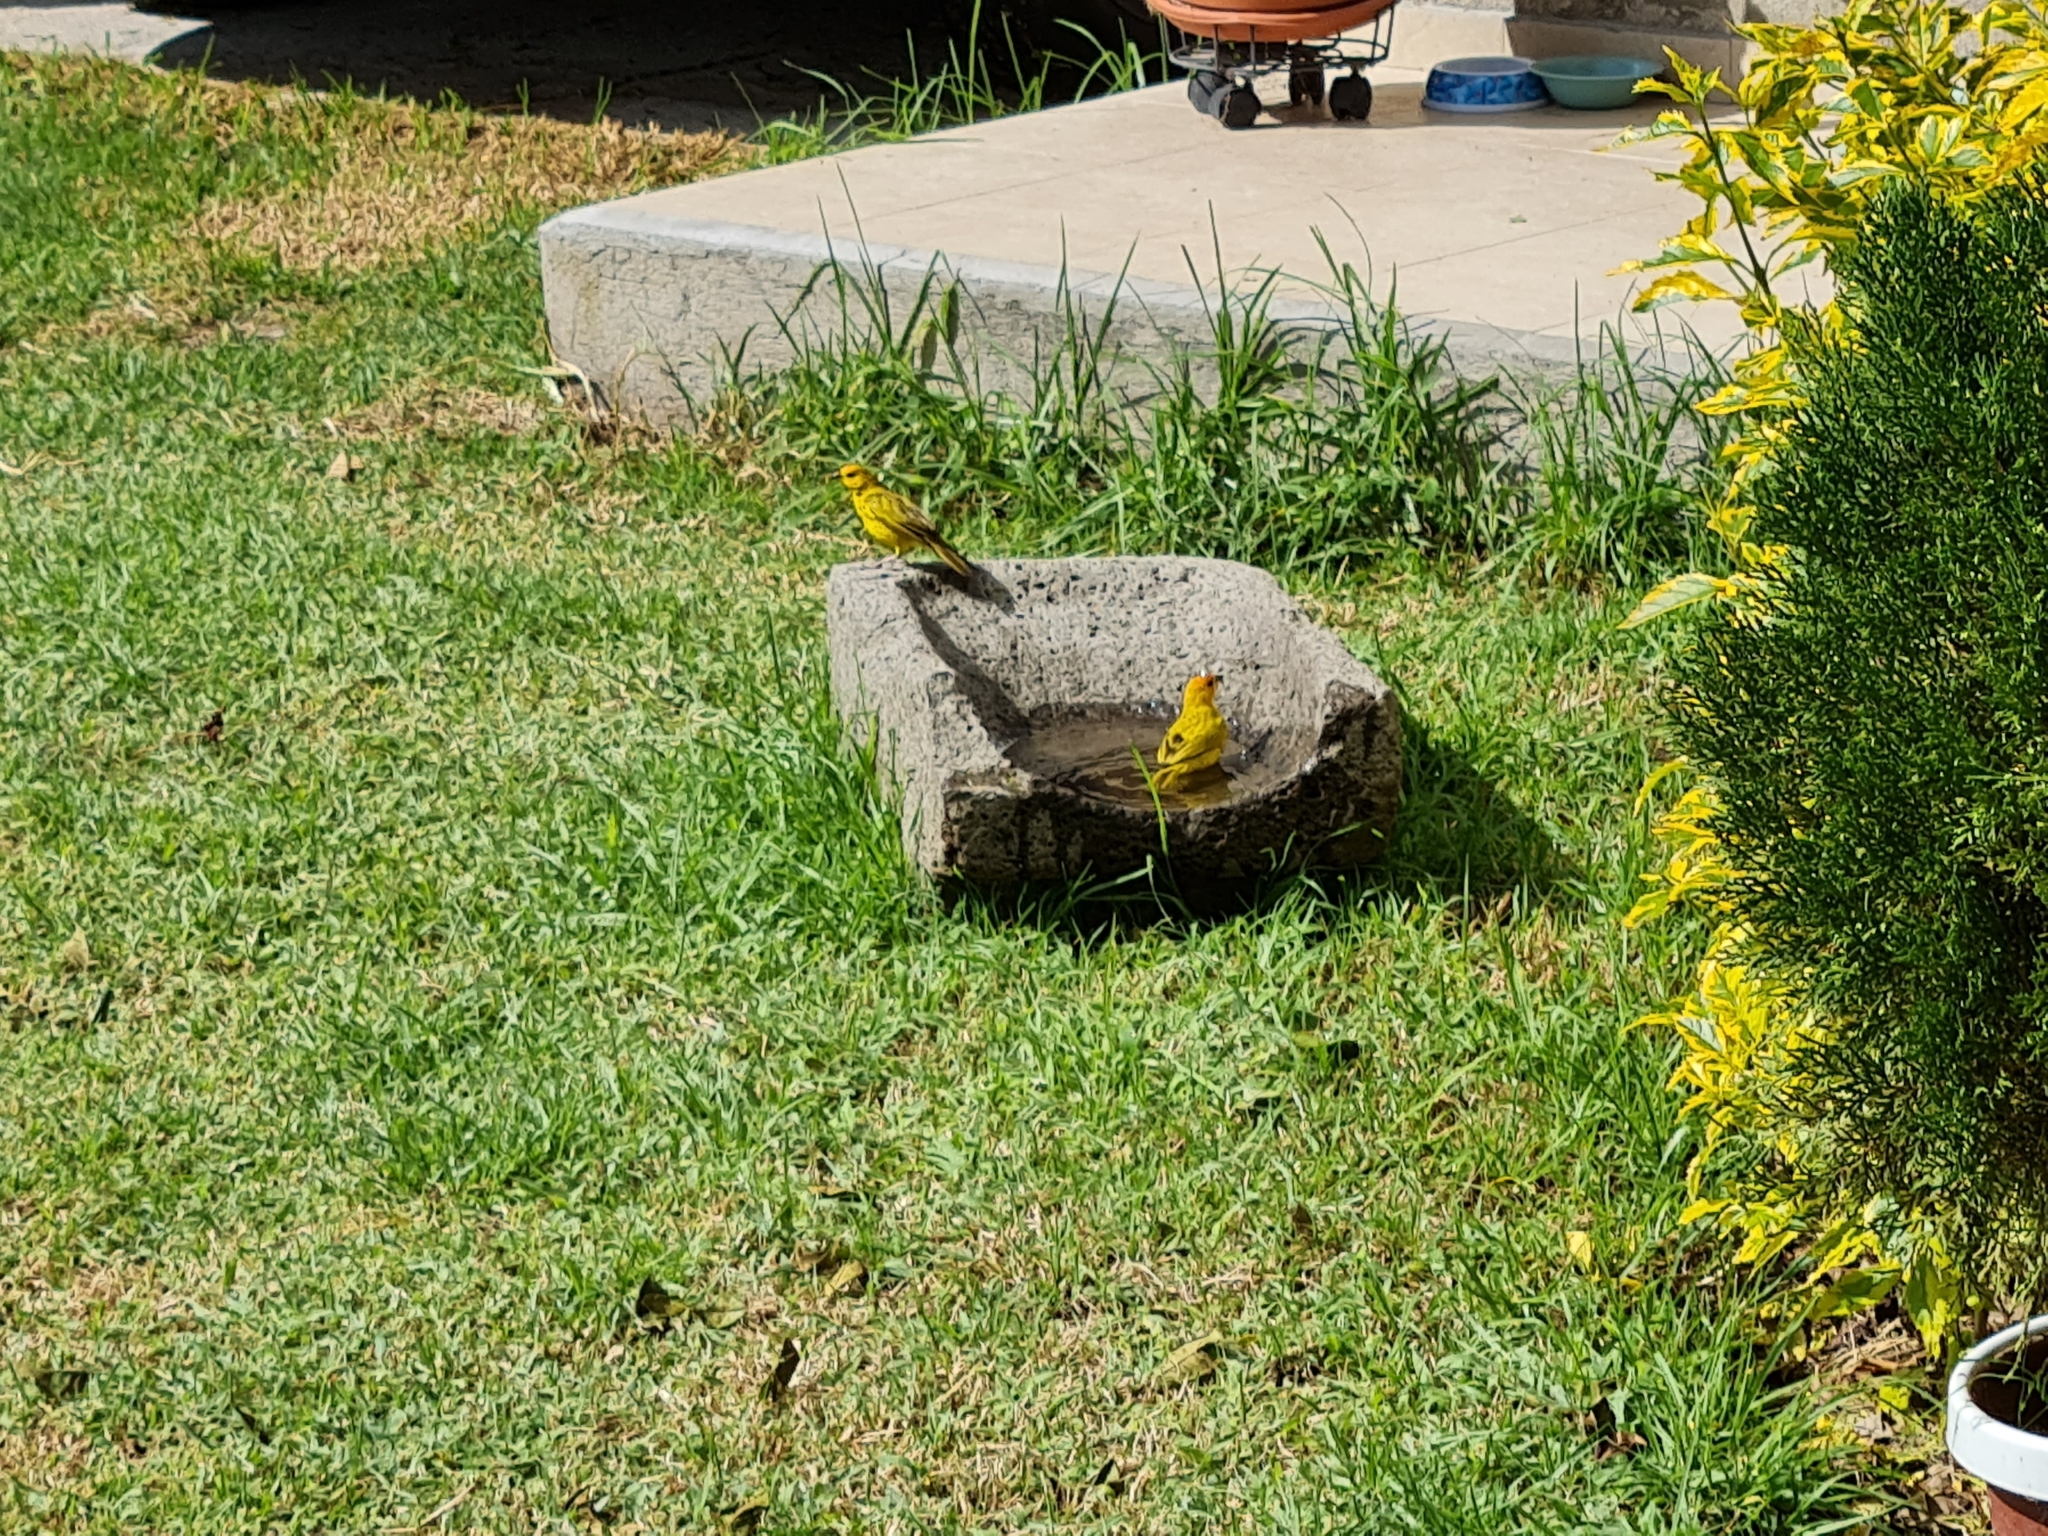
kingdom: Animalia
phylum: Chordata
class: Aves
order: Passeriformes
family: Thraupidae
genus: Sicalis
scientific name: Sicalis flaveola
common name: Saffron finch
